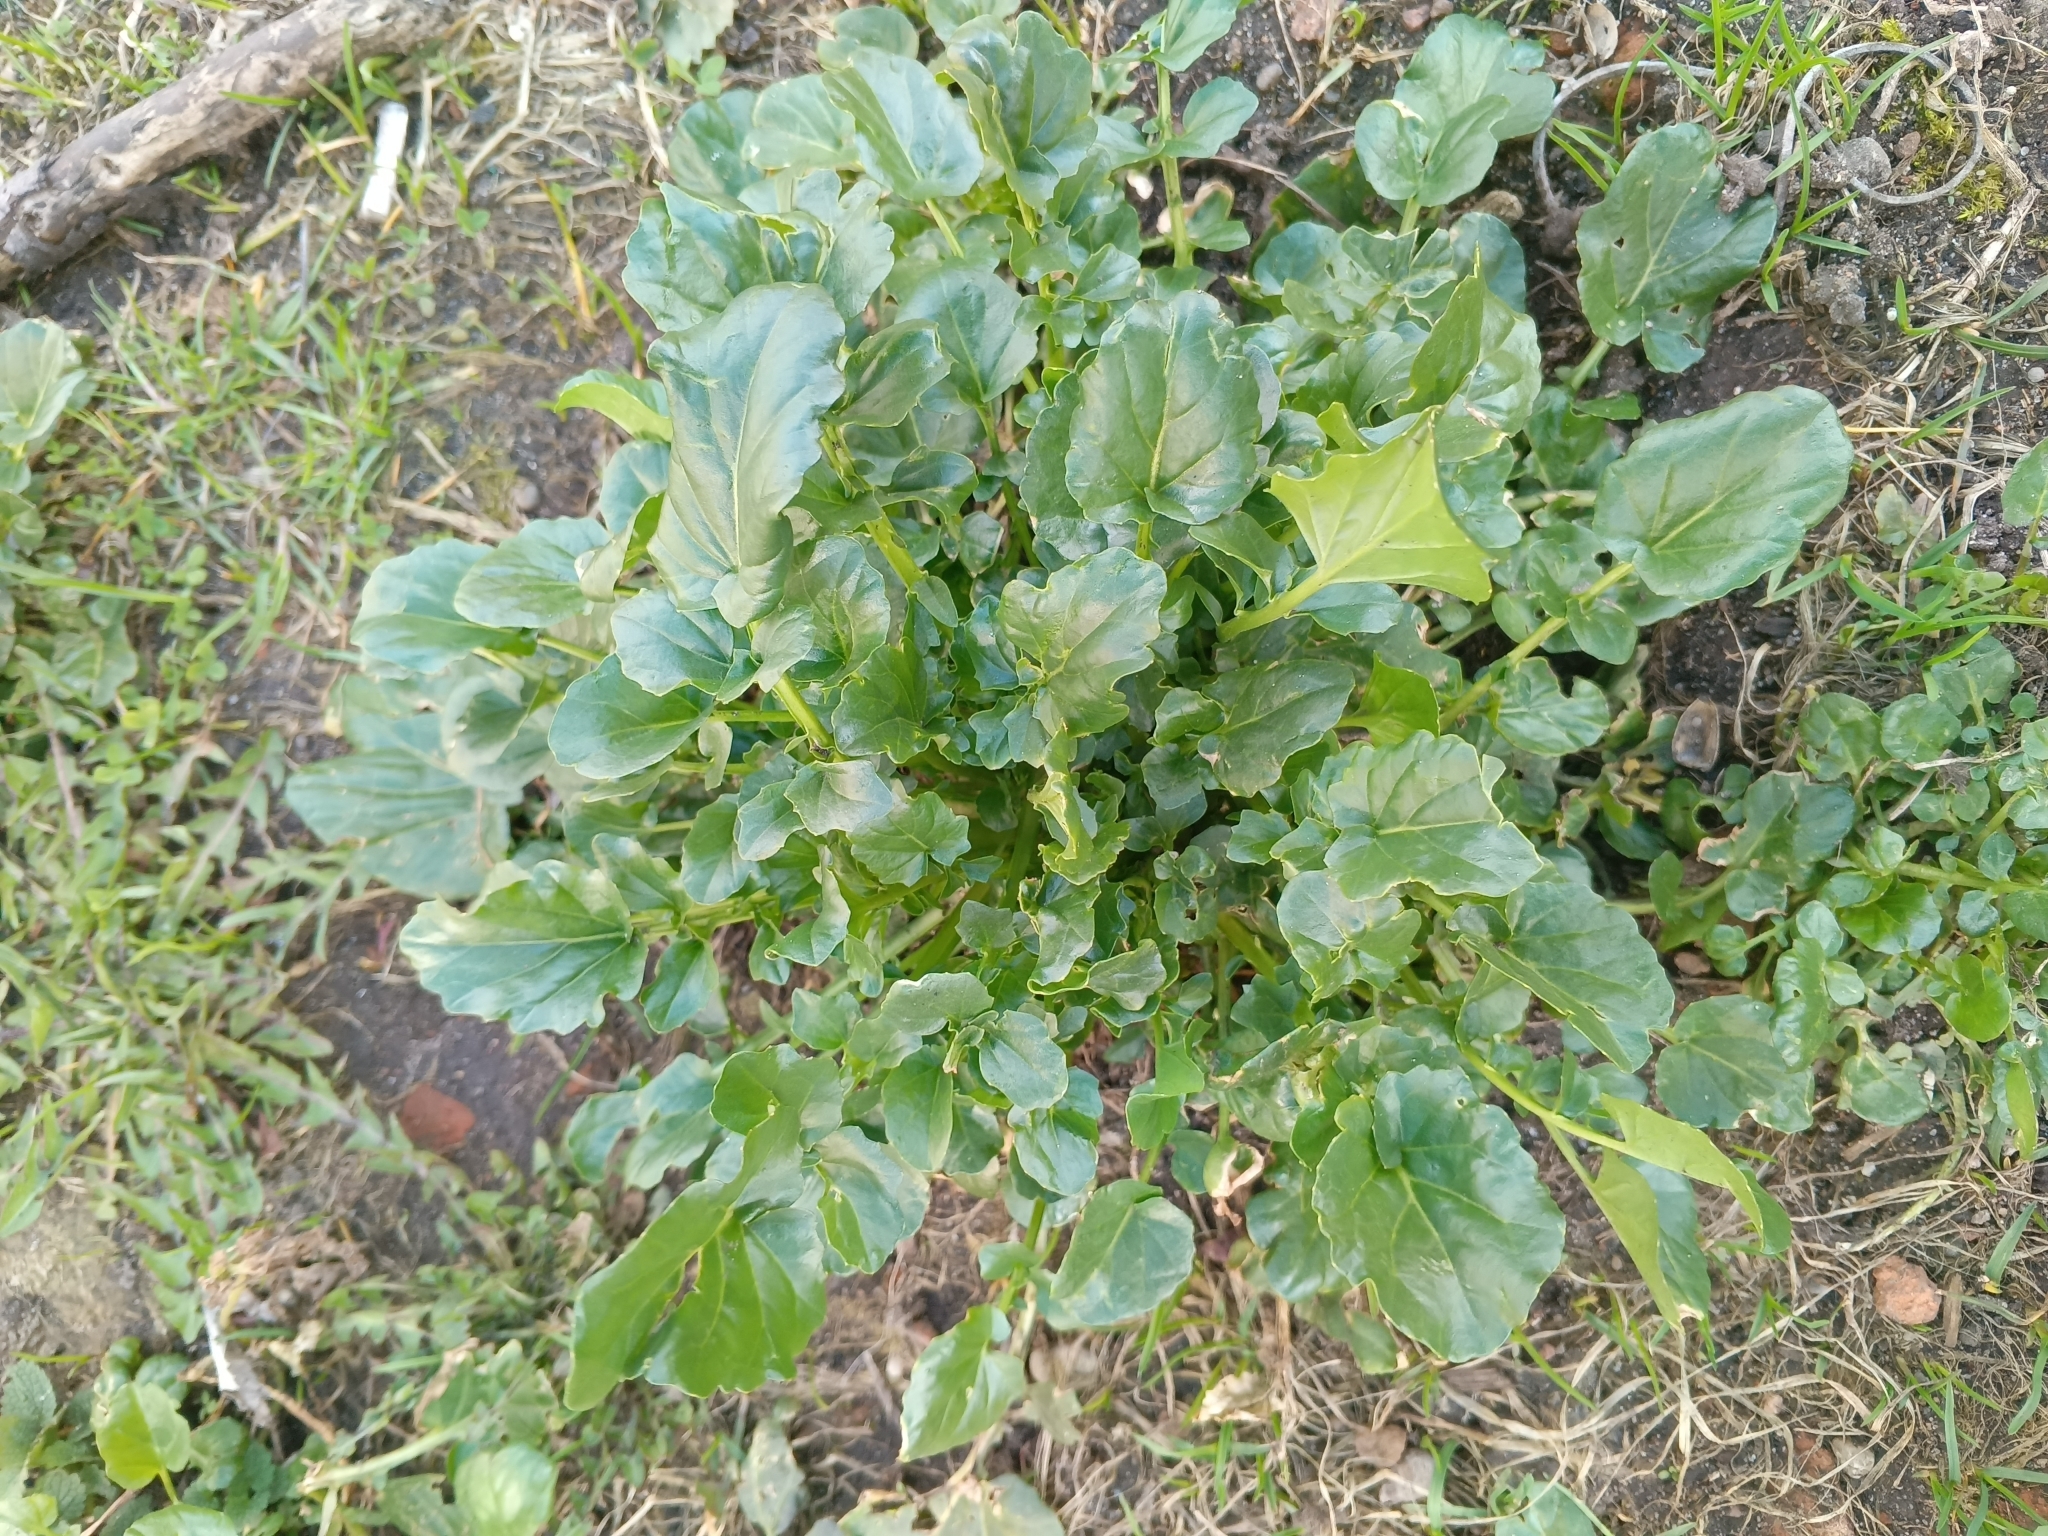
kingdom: Plantae
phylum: Tracheophyta
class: Magnoliopsida
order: Brassicales
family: Brassicaceae
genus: Barbarea
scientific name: Barbarea vulgaris
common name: Cressy-greens
